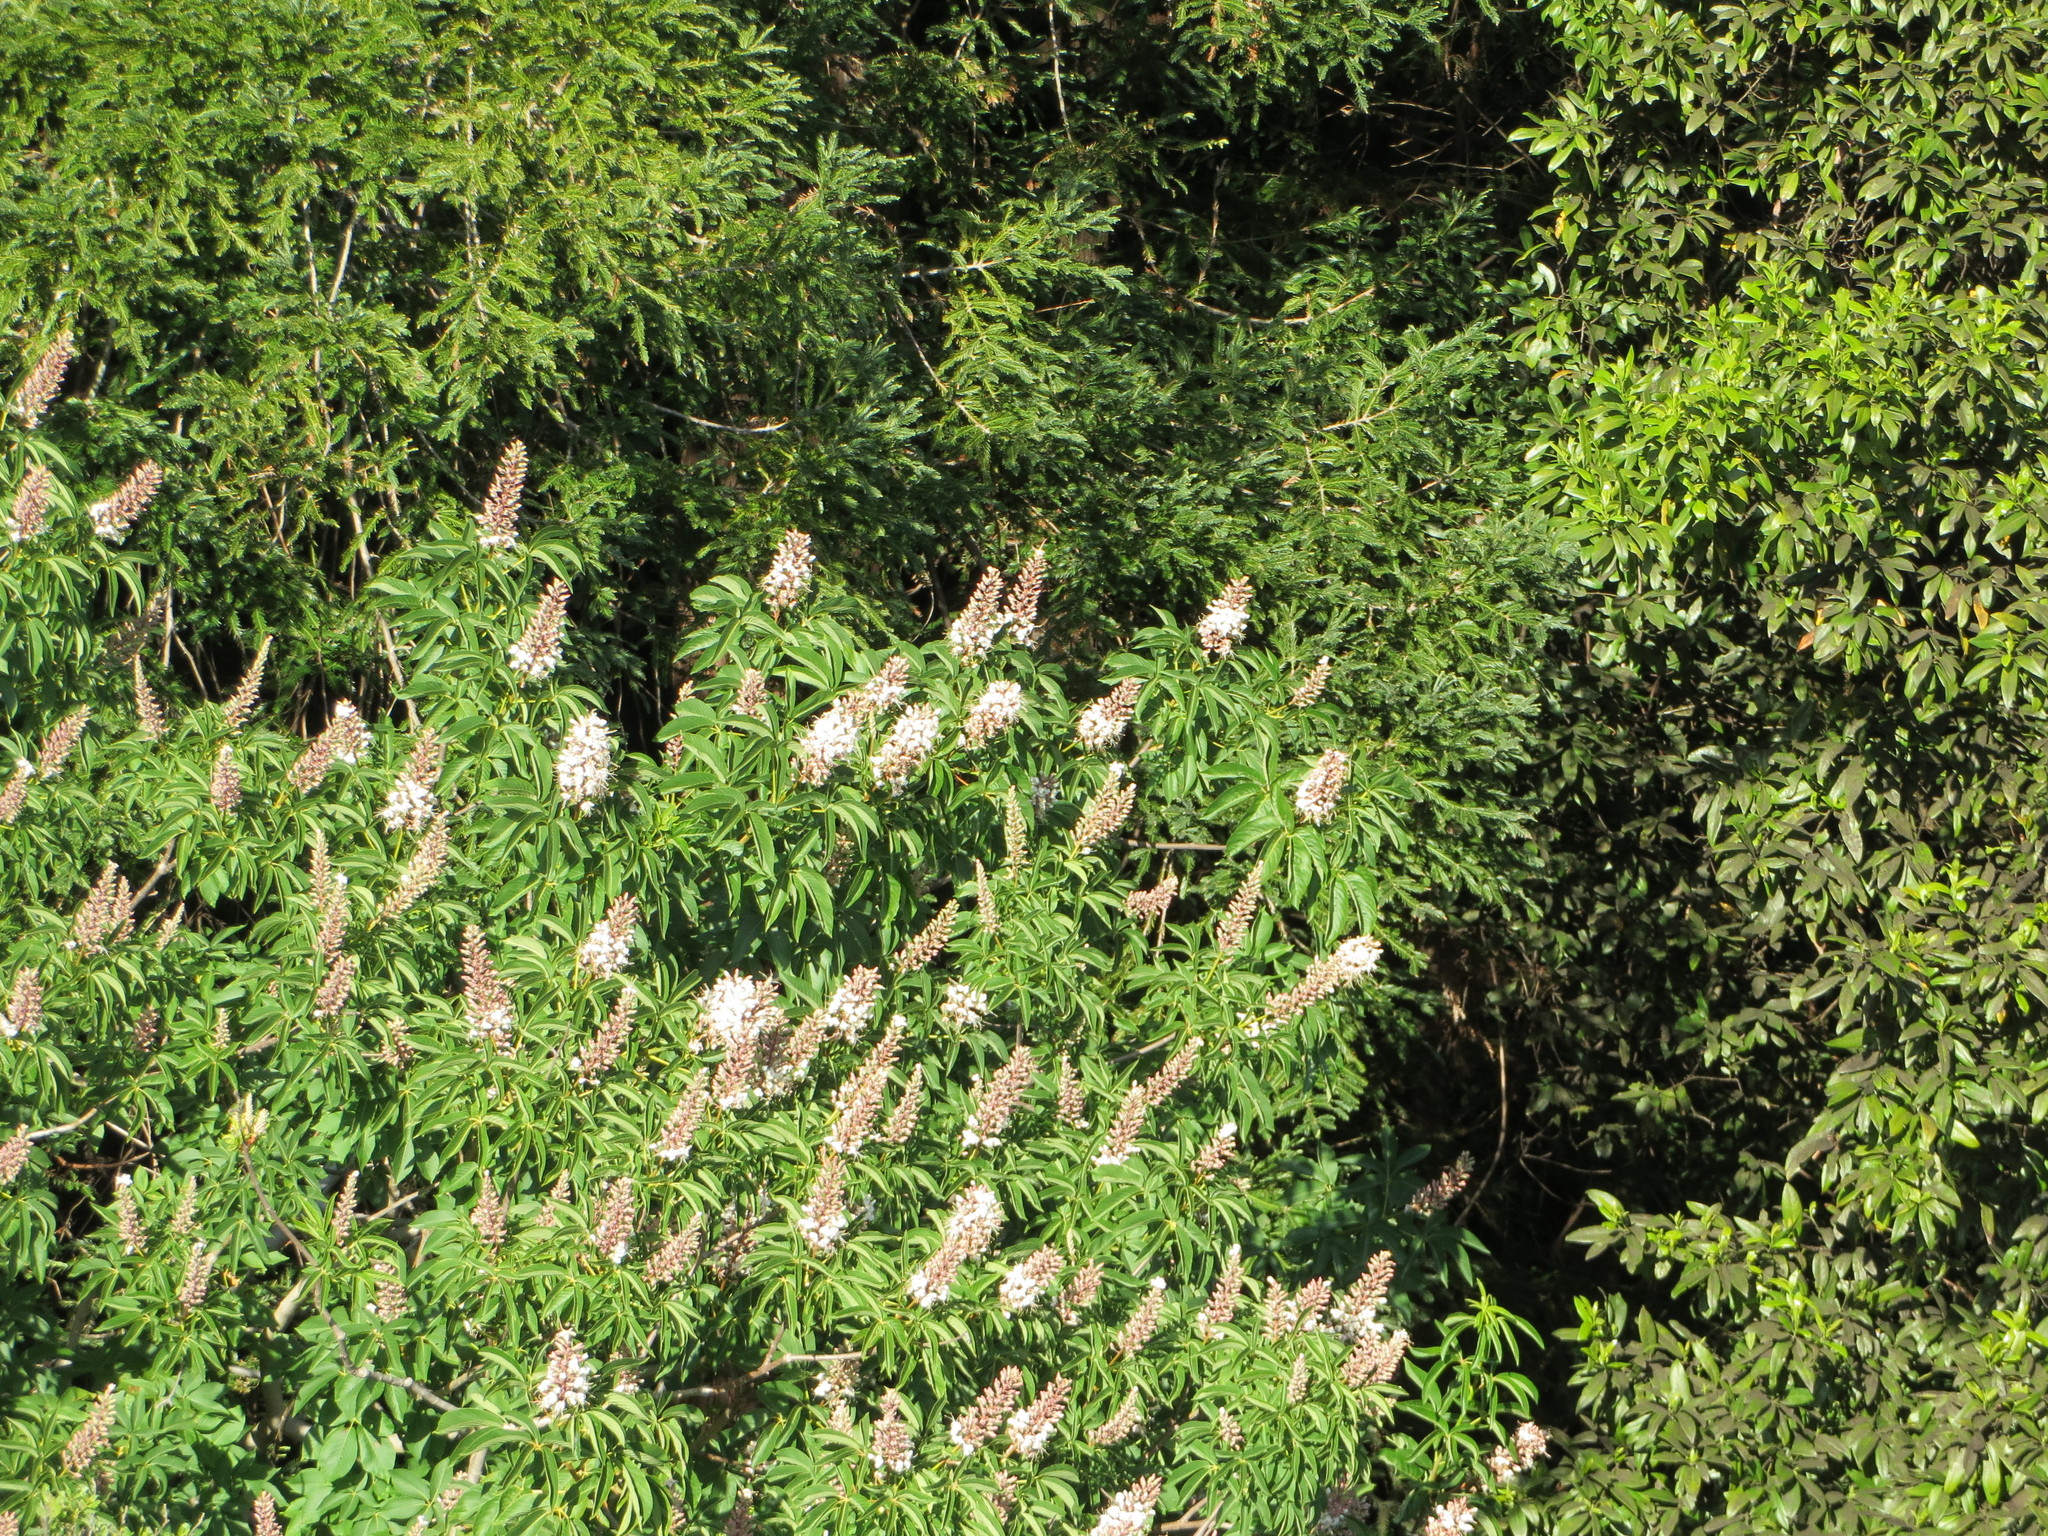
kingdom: Plantae
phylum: Tracheophyta
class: Magnoliopsida
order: Sapindales
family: Sapindaceae
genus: Aesculus
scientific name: Aesculus californica
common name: California buckeye
